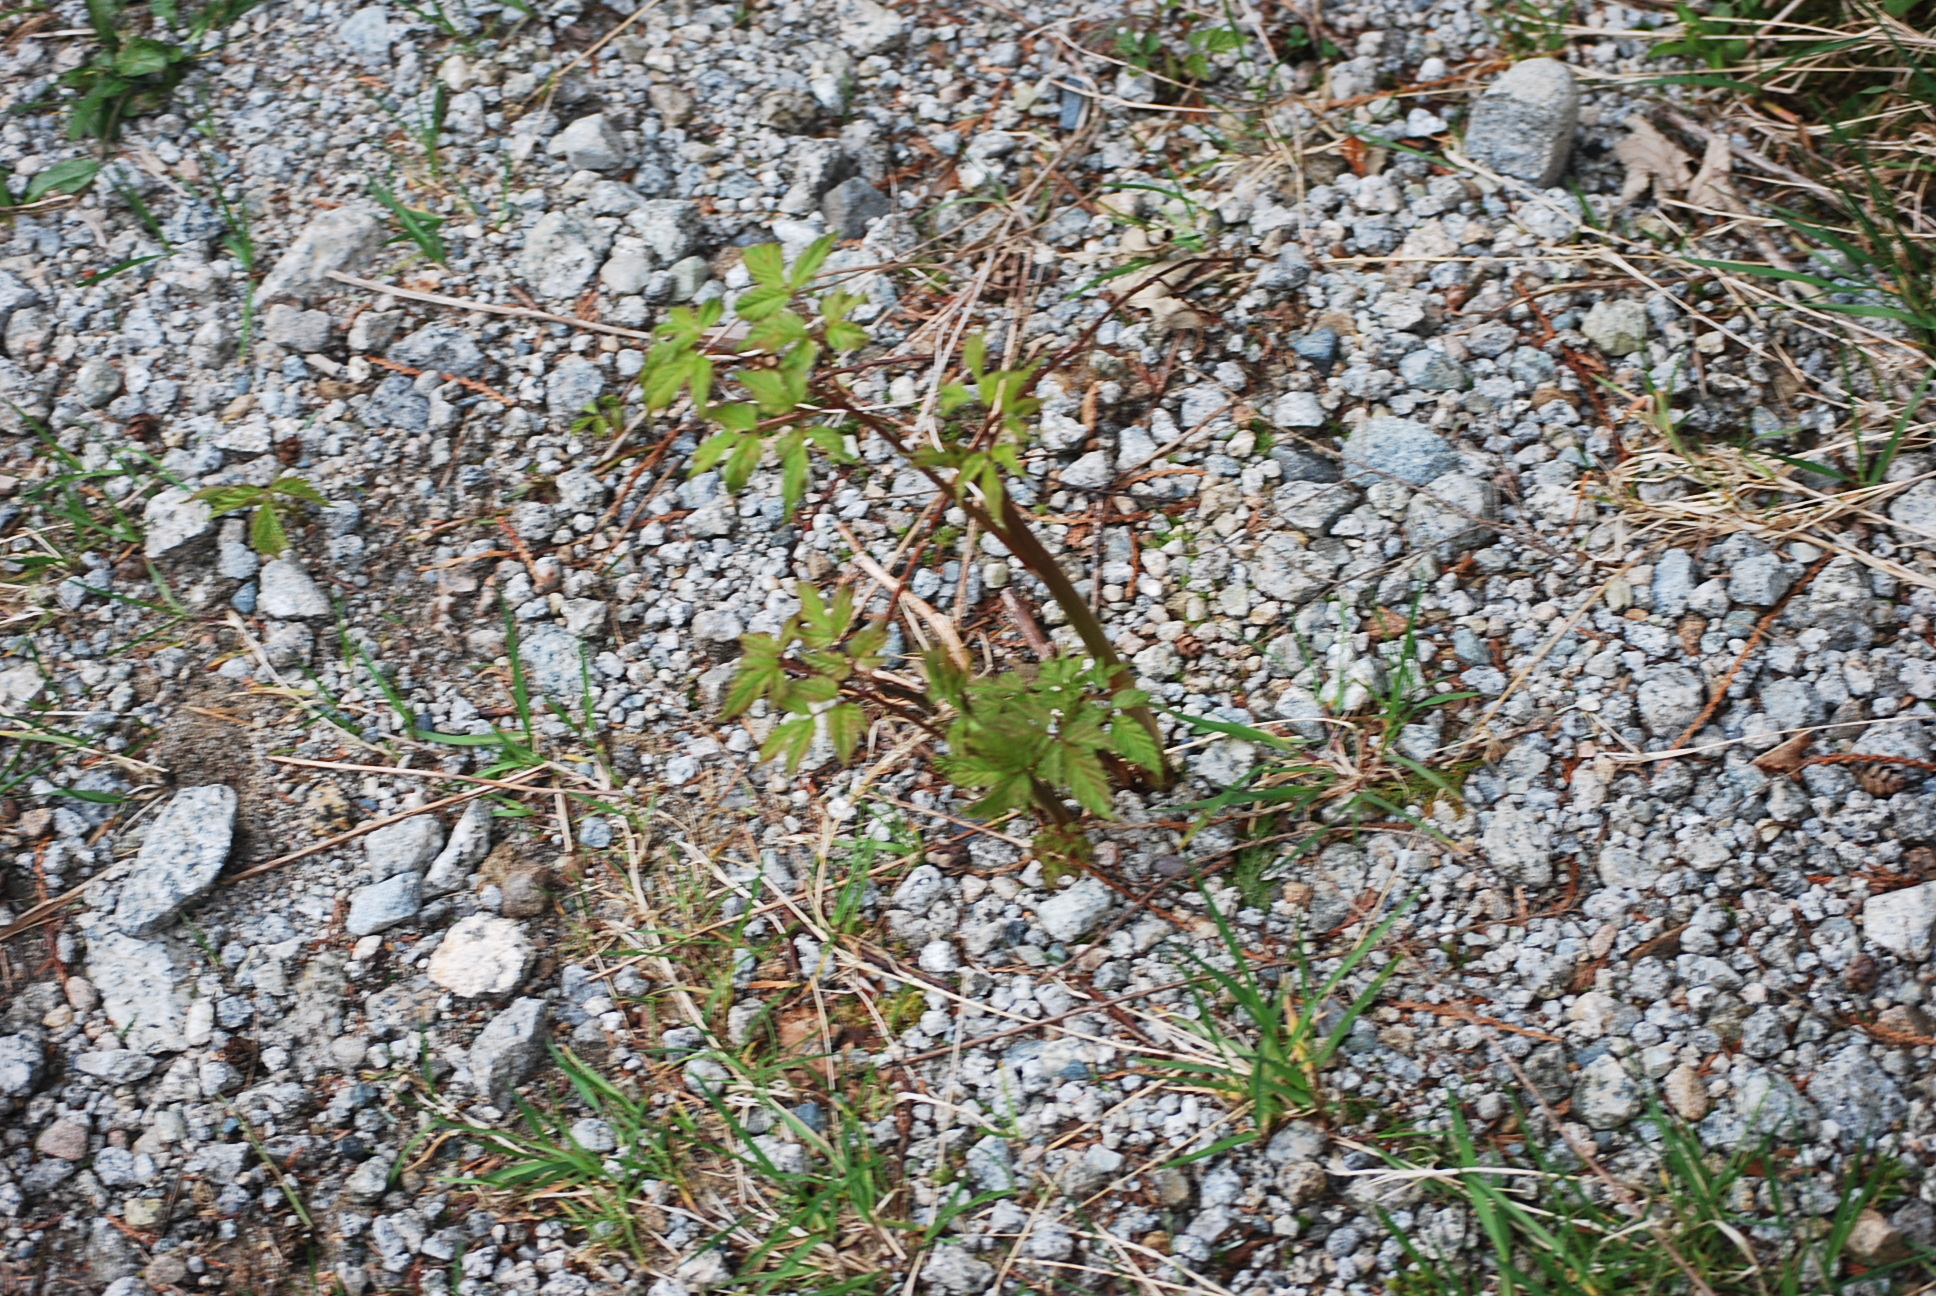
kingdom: Plantae
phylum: Tracheophyta
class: Magnoliopsida
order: Rosales
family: Rosaceae
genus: Aruncus
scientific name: Aruncus dioicus
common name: Buck's-beard
